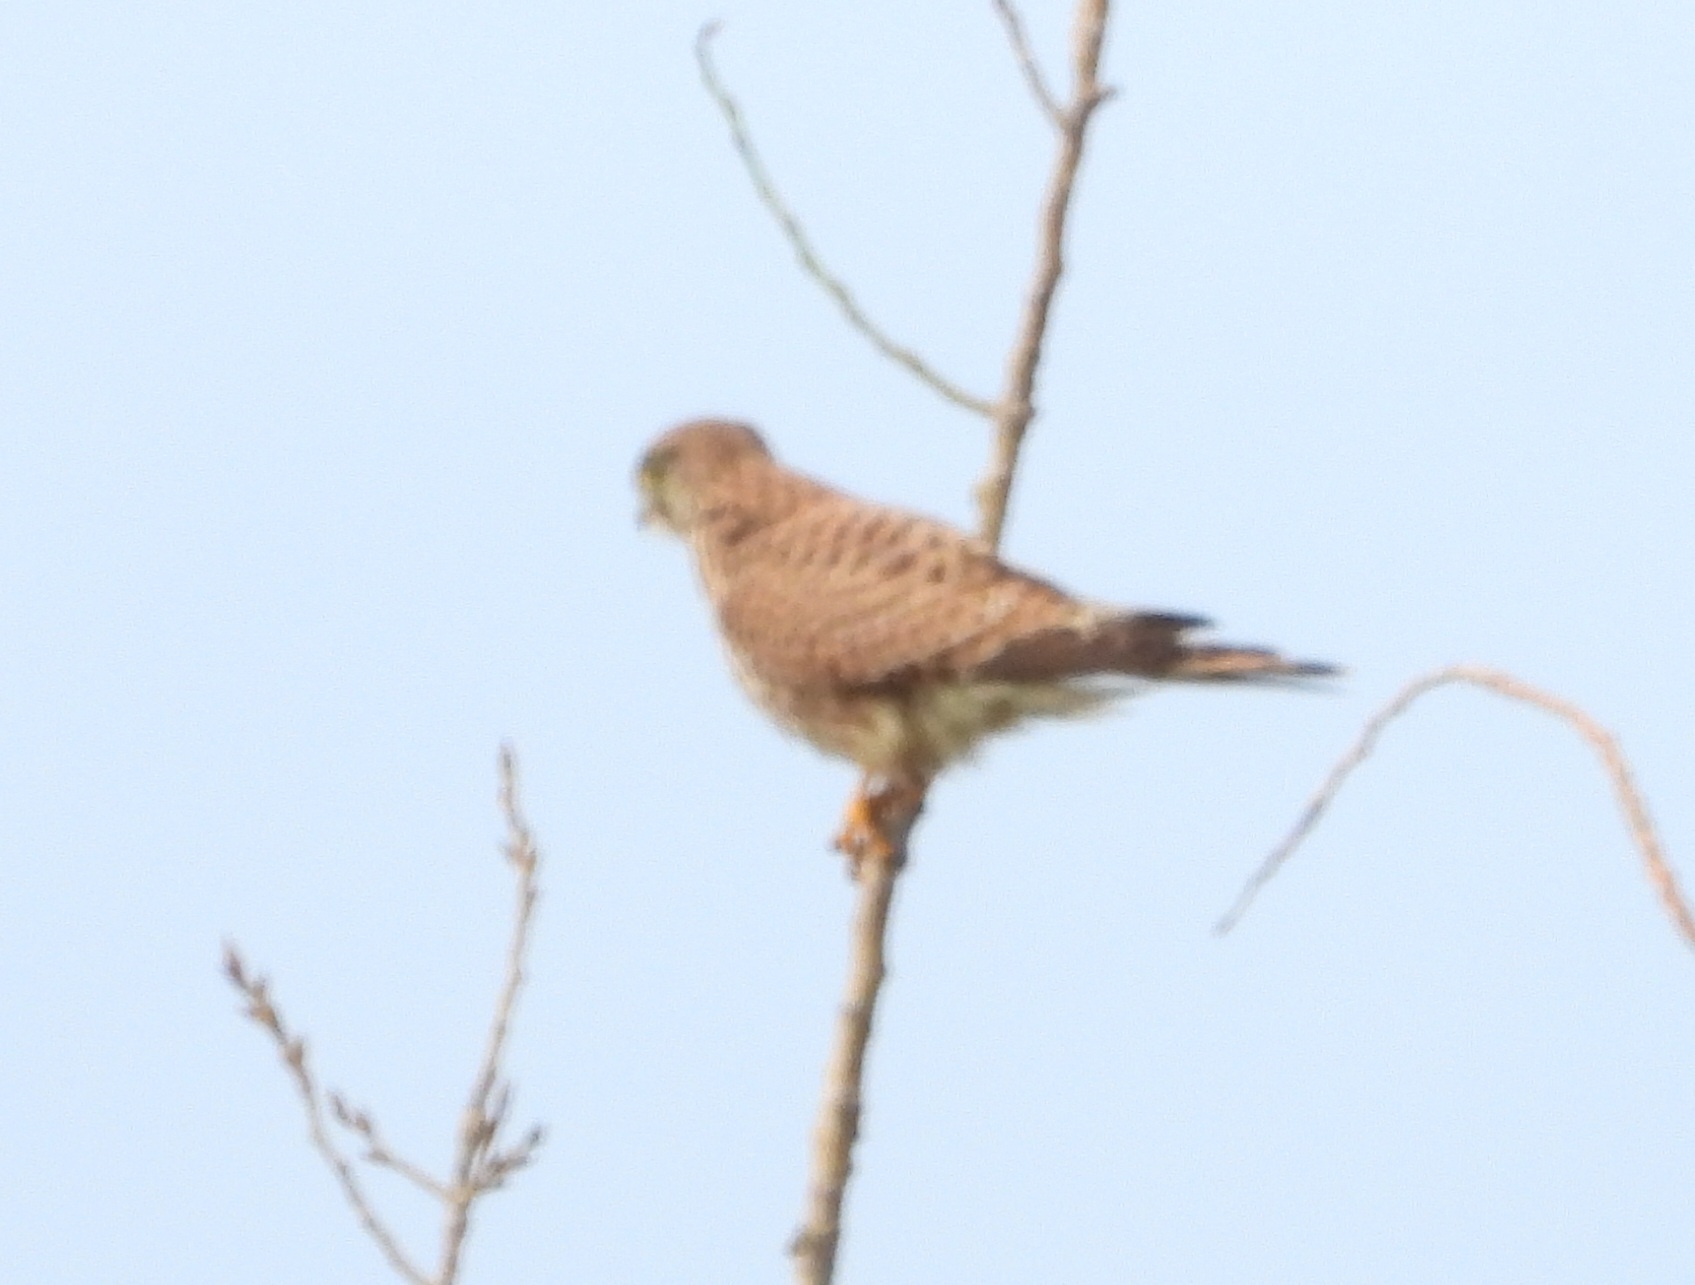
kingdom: Animalia
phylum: Chordata
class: Aves
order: Falconiformes
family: Falconidae
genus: Falco
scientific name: Falco tinnunculus
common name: Common kestrel
